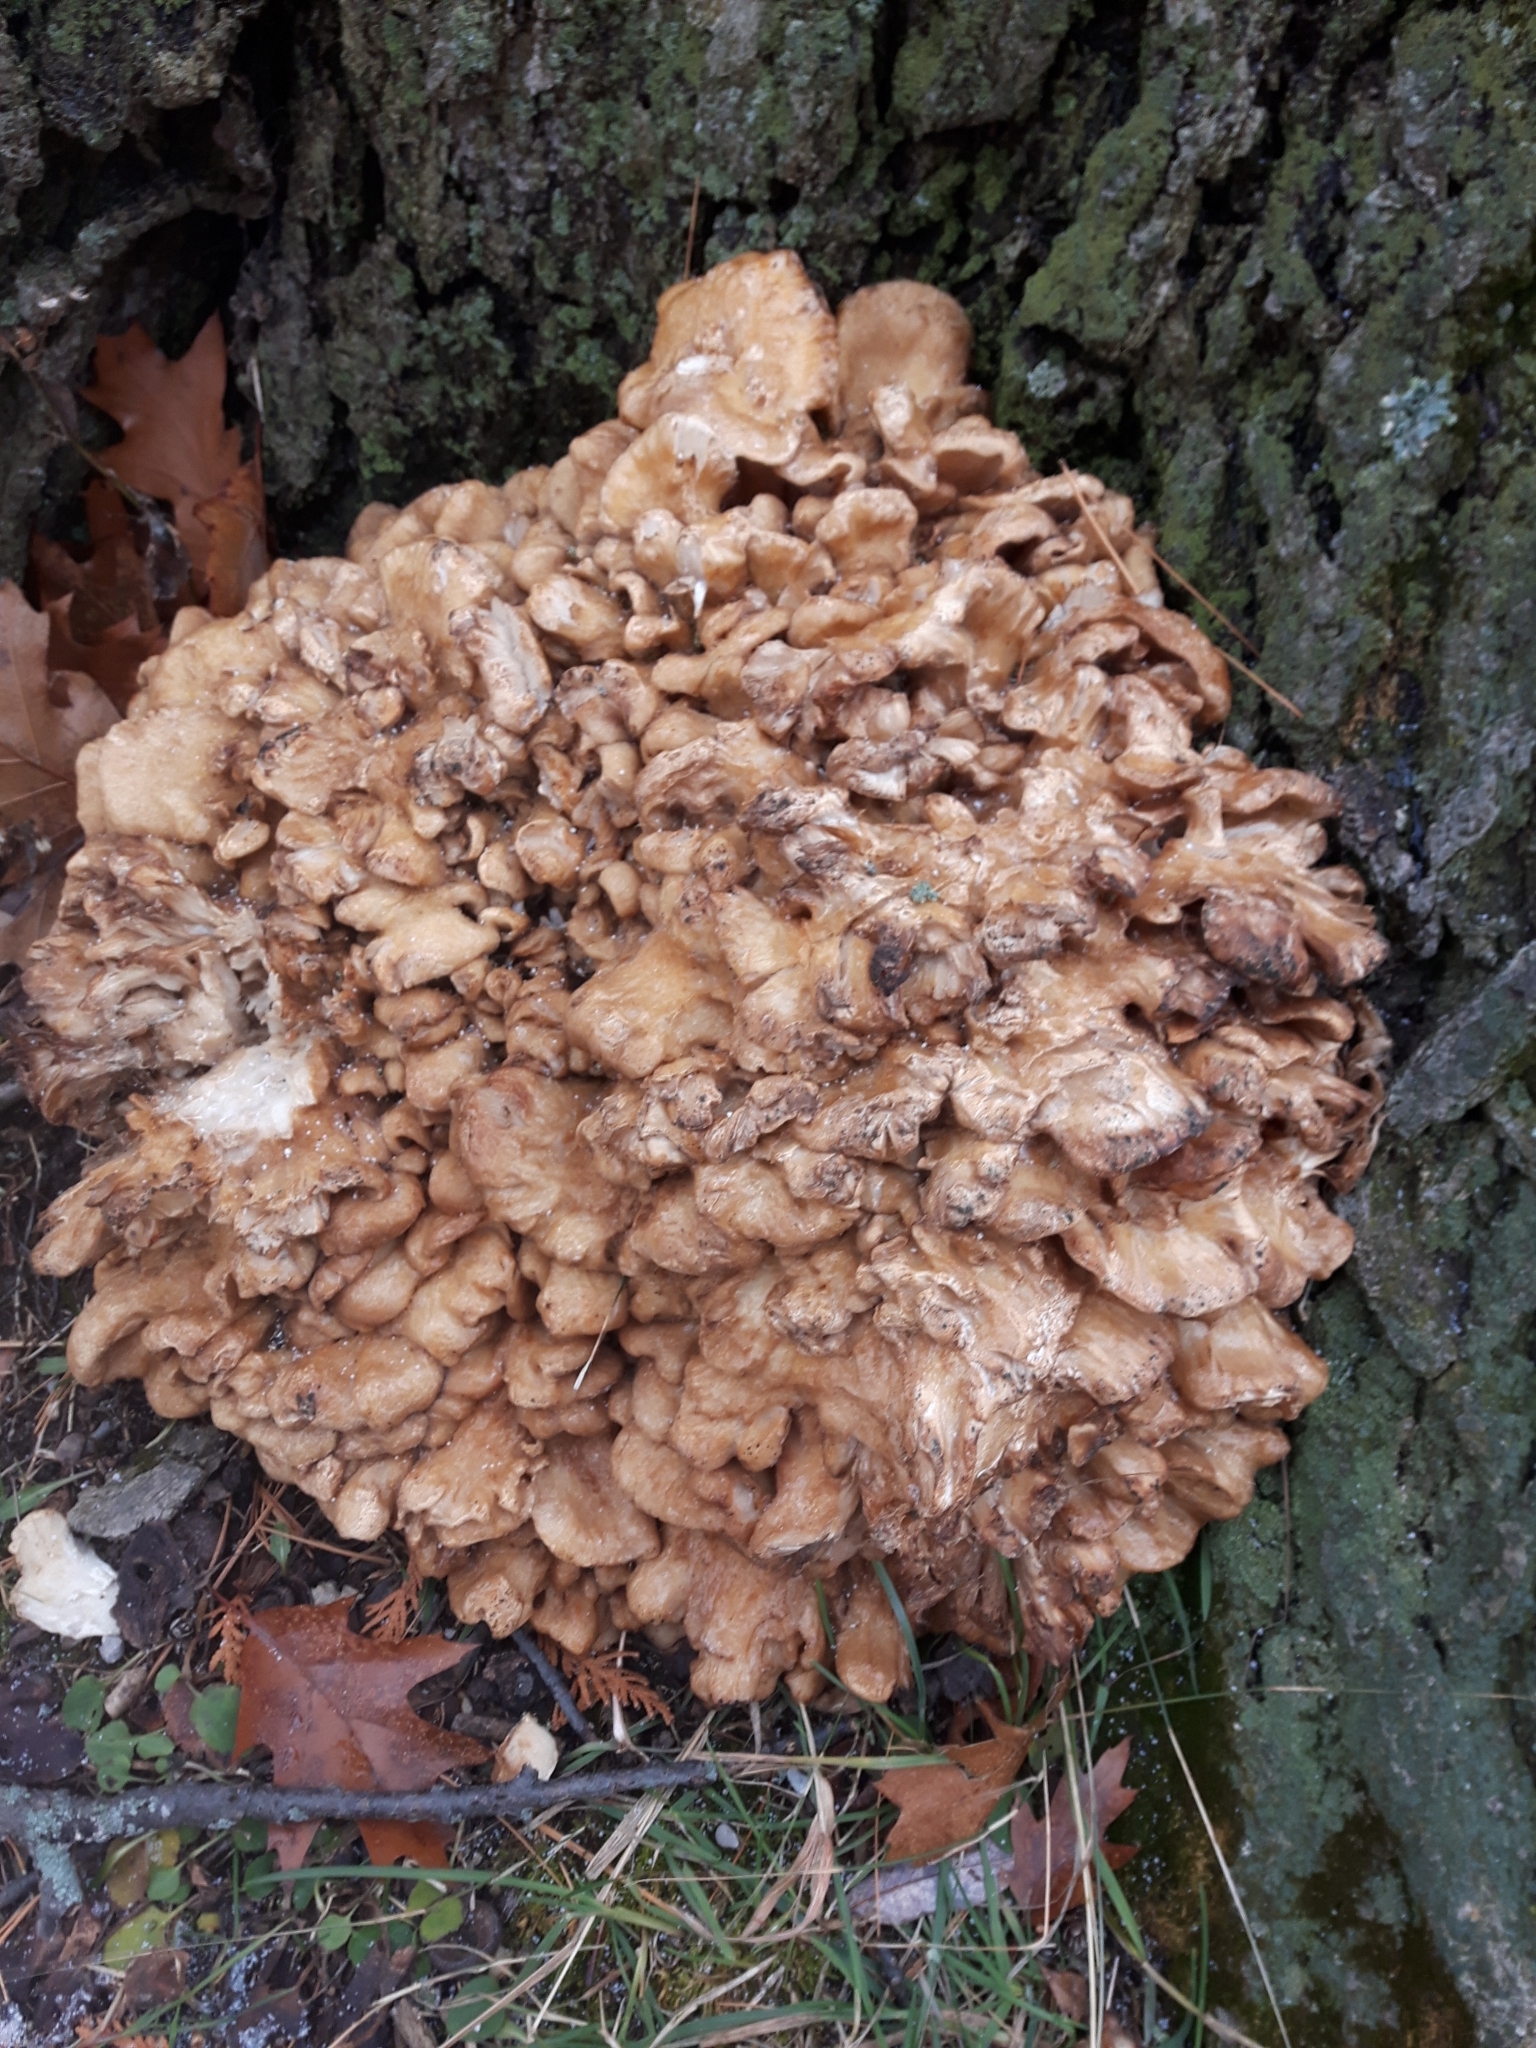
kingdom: Fungi
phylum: Basidiomycota
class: Agaricomycetes
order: Polyporales
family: Grifolaceae
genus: Grifola
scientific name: Grifola frondosa
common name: Hen of the woods
